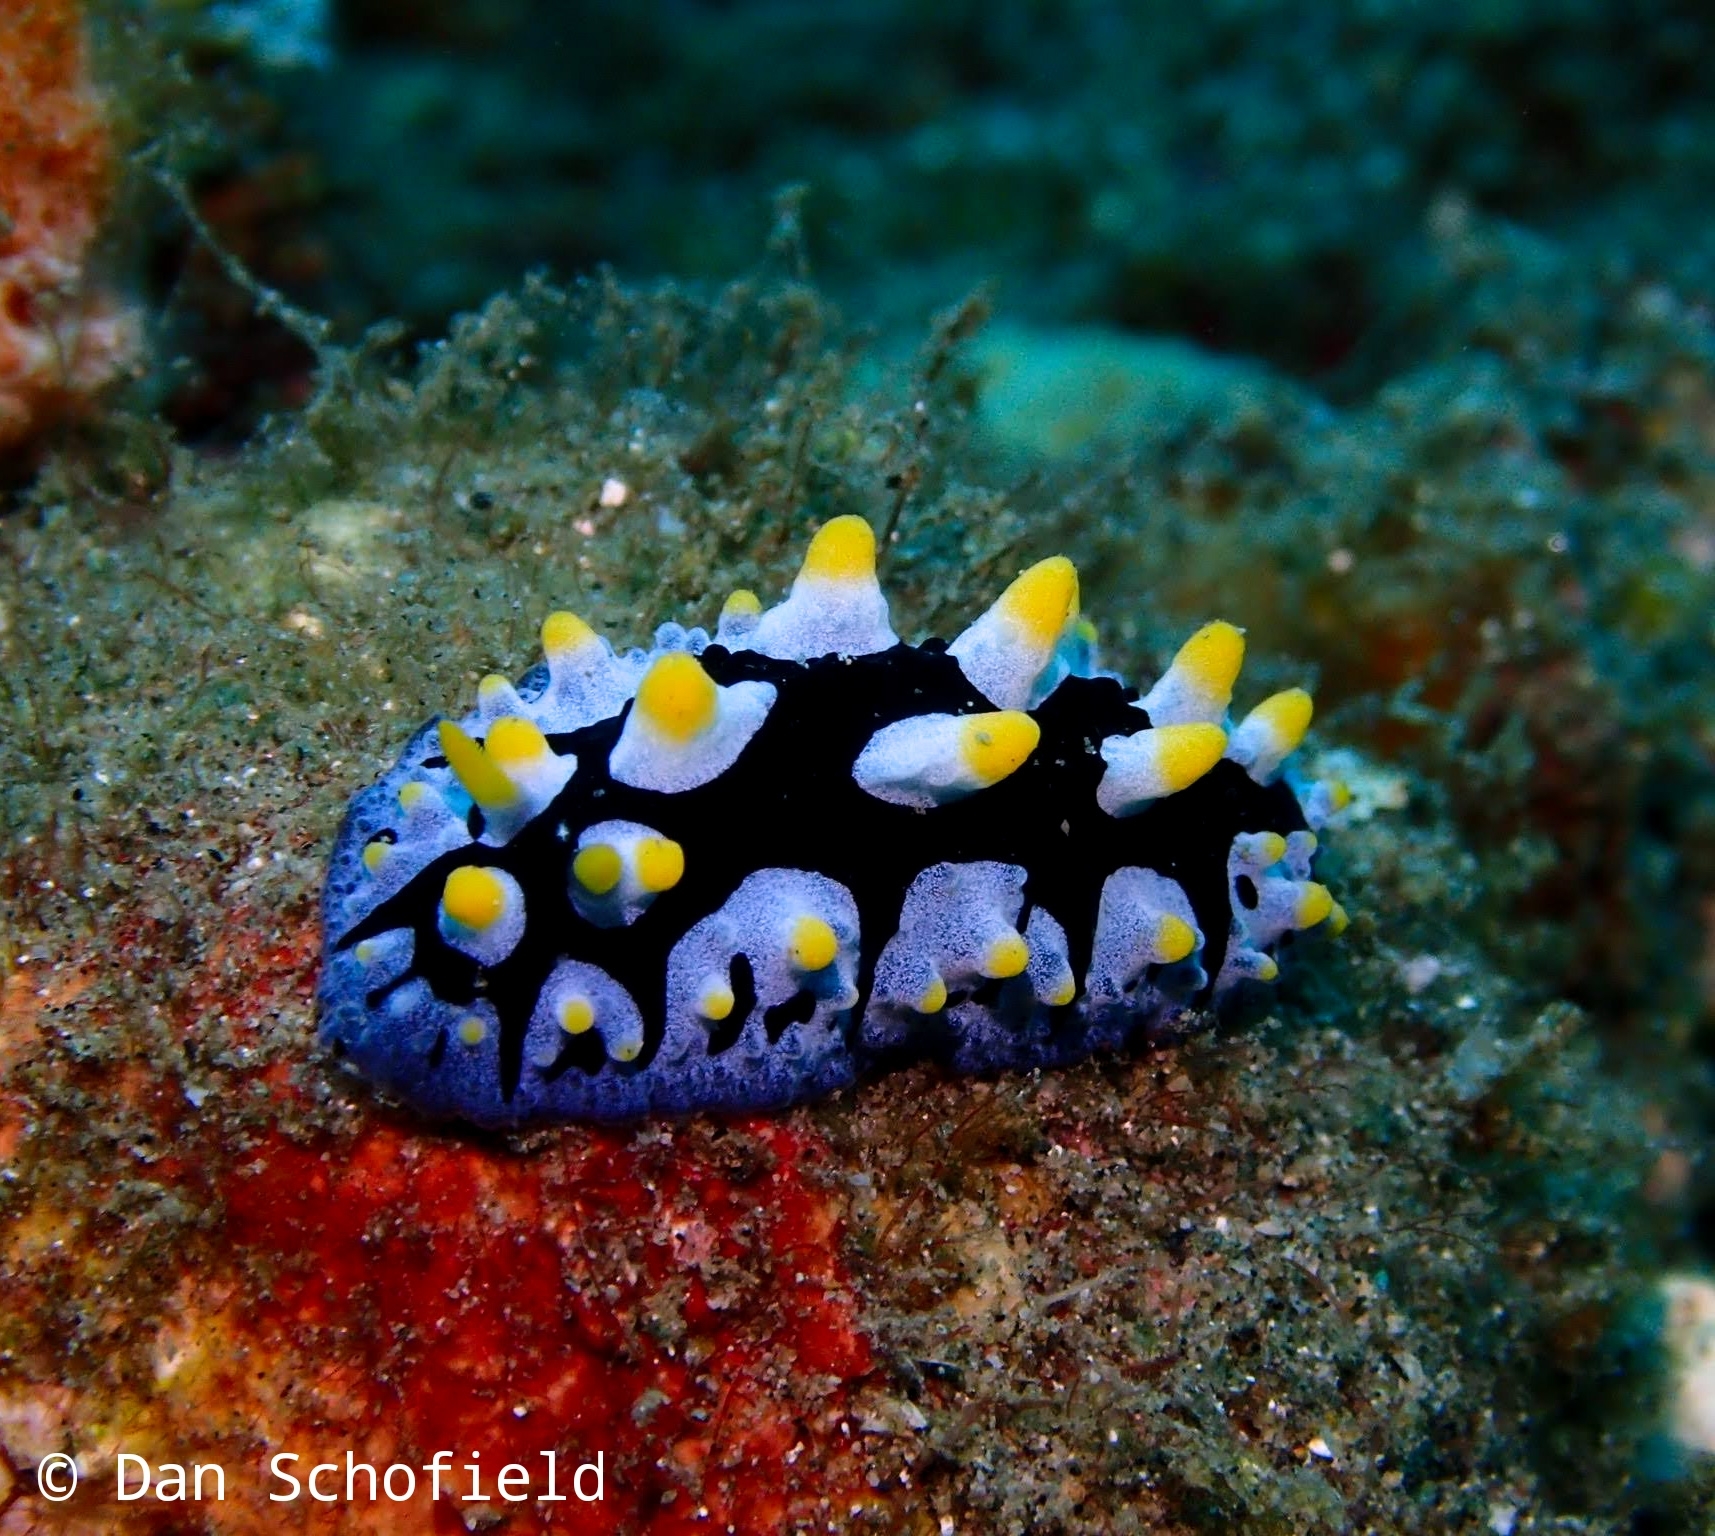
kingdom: Animalia
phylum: Mollusca
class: Gastropoda
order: Nudibranchia
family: Phyllidiidae
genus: Phyllidia
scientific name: Phyllidia picta
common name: Black-rayed phyllidia
